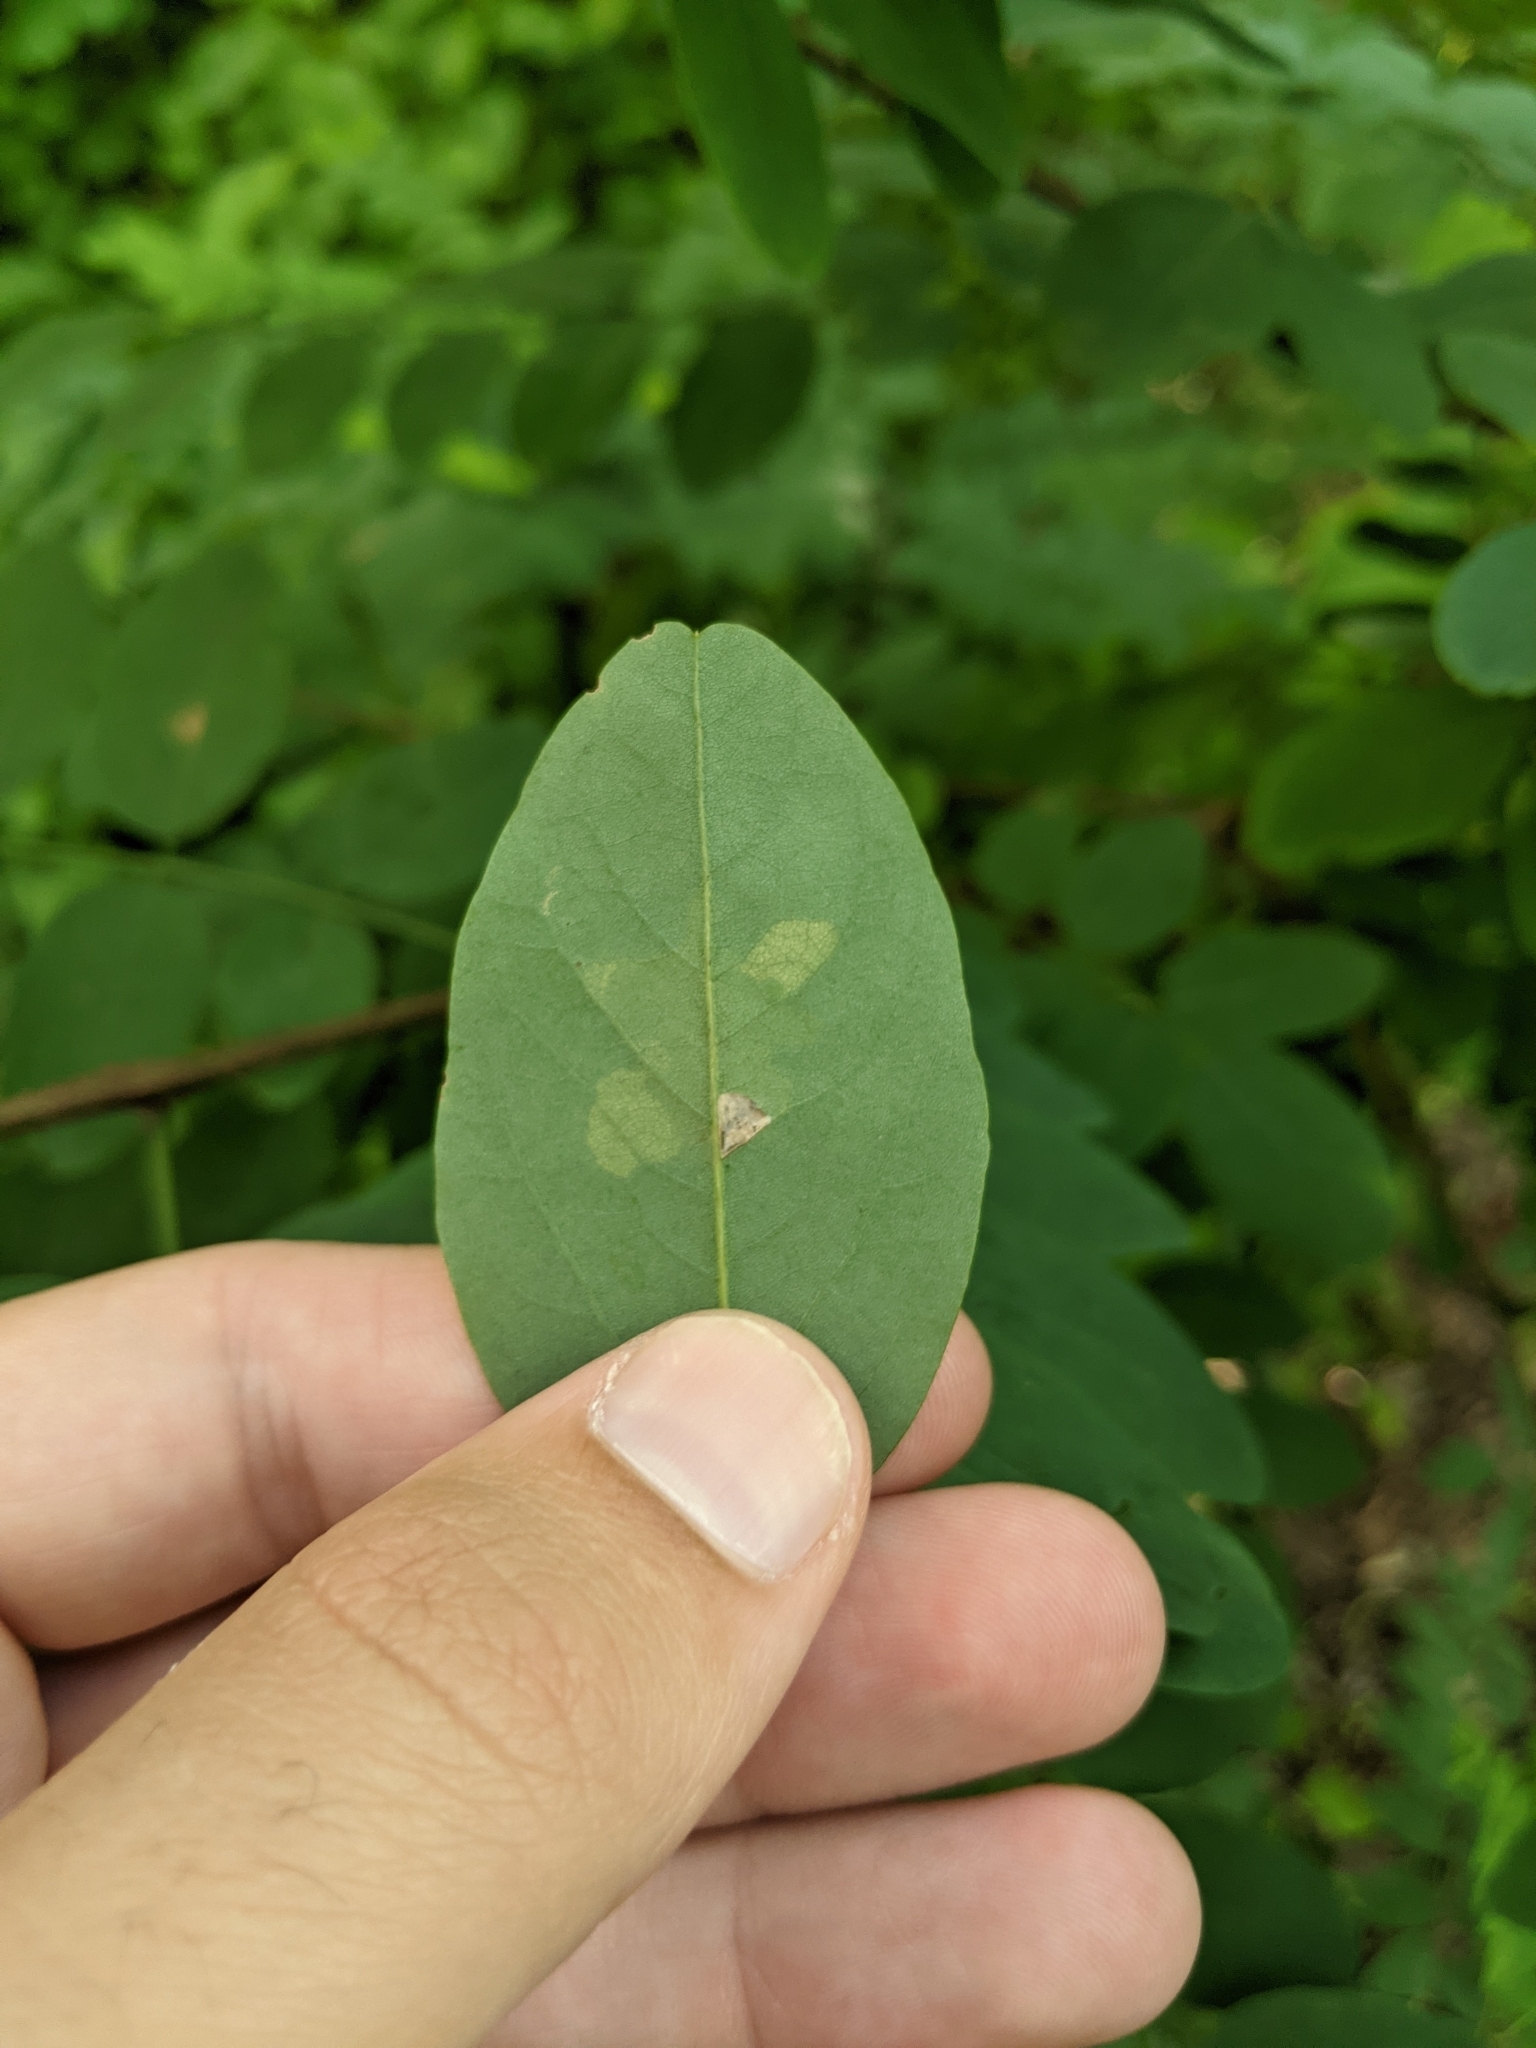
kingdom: Animalia
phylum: Arthropoda
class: Insecta
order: Lepidoptera
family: Gracillariidae
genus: Parectopa
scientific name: Parectopa robiniella
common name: Locust digitate leafminer
